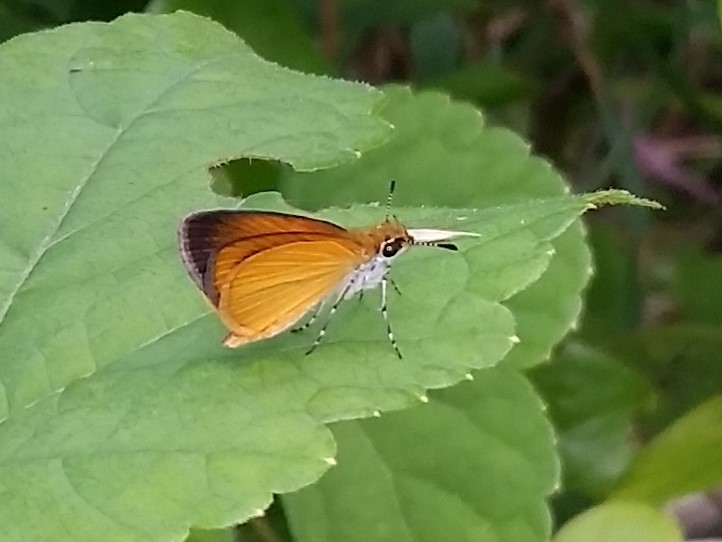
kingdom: Animalia
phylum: Arthropoda
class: Insecta
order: Lepidoptera
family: Hesperiidae
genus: Ancyloxypha
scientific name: Ancyloxypha numitor
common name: Least skipper
